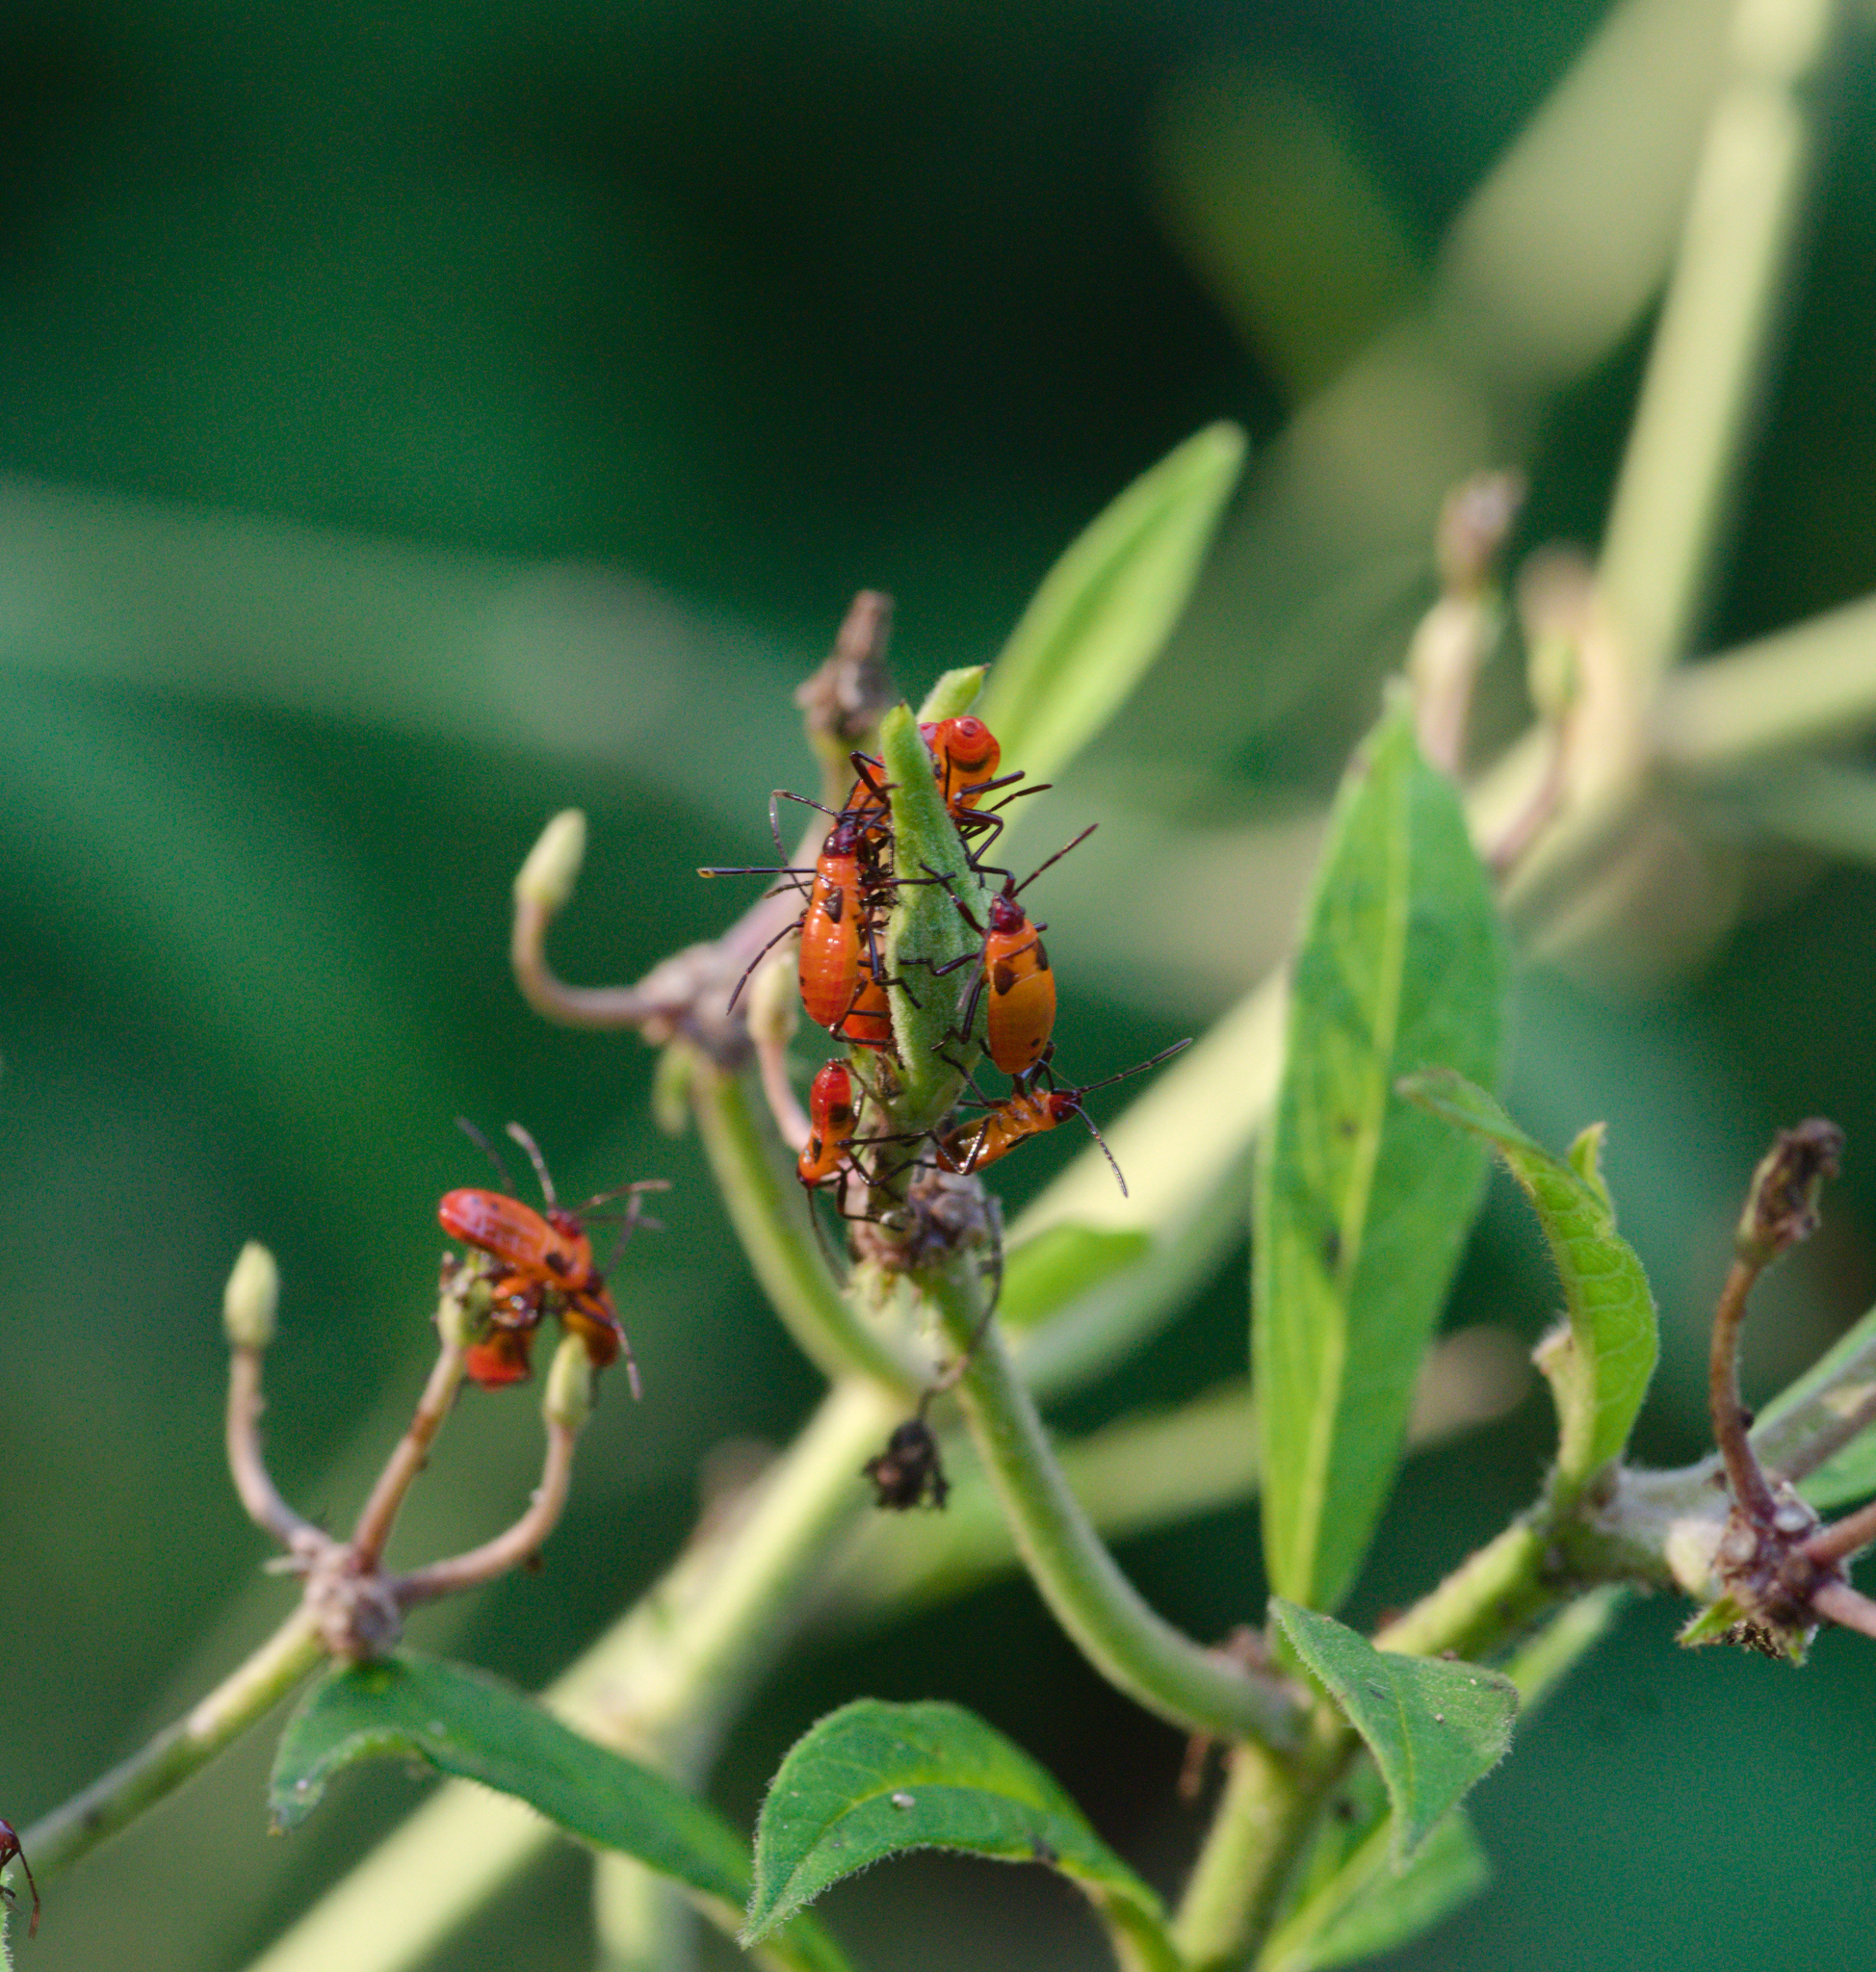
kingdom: Animalia
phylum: Arthropoda
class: Insecta
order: Hemiptera
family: Lygaeidae
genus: Oncopeltus
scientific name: Oncopeltus fasciatus
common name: Large milkweed bug
